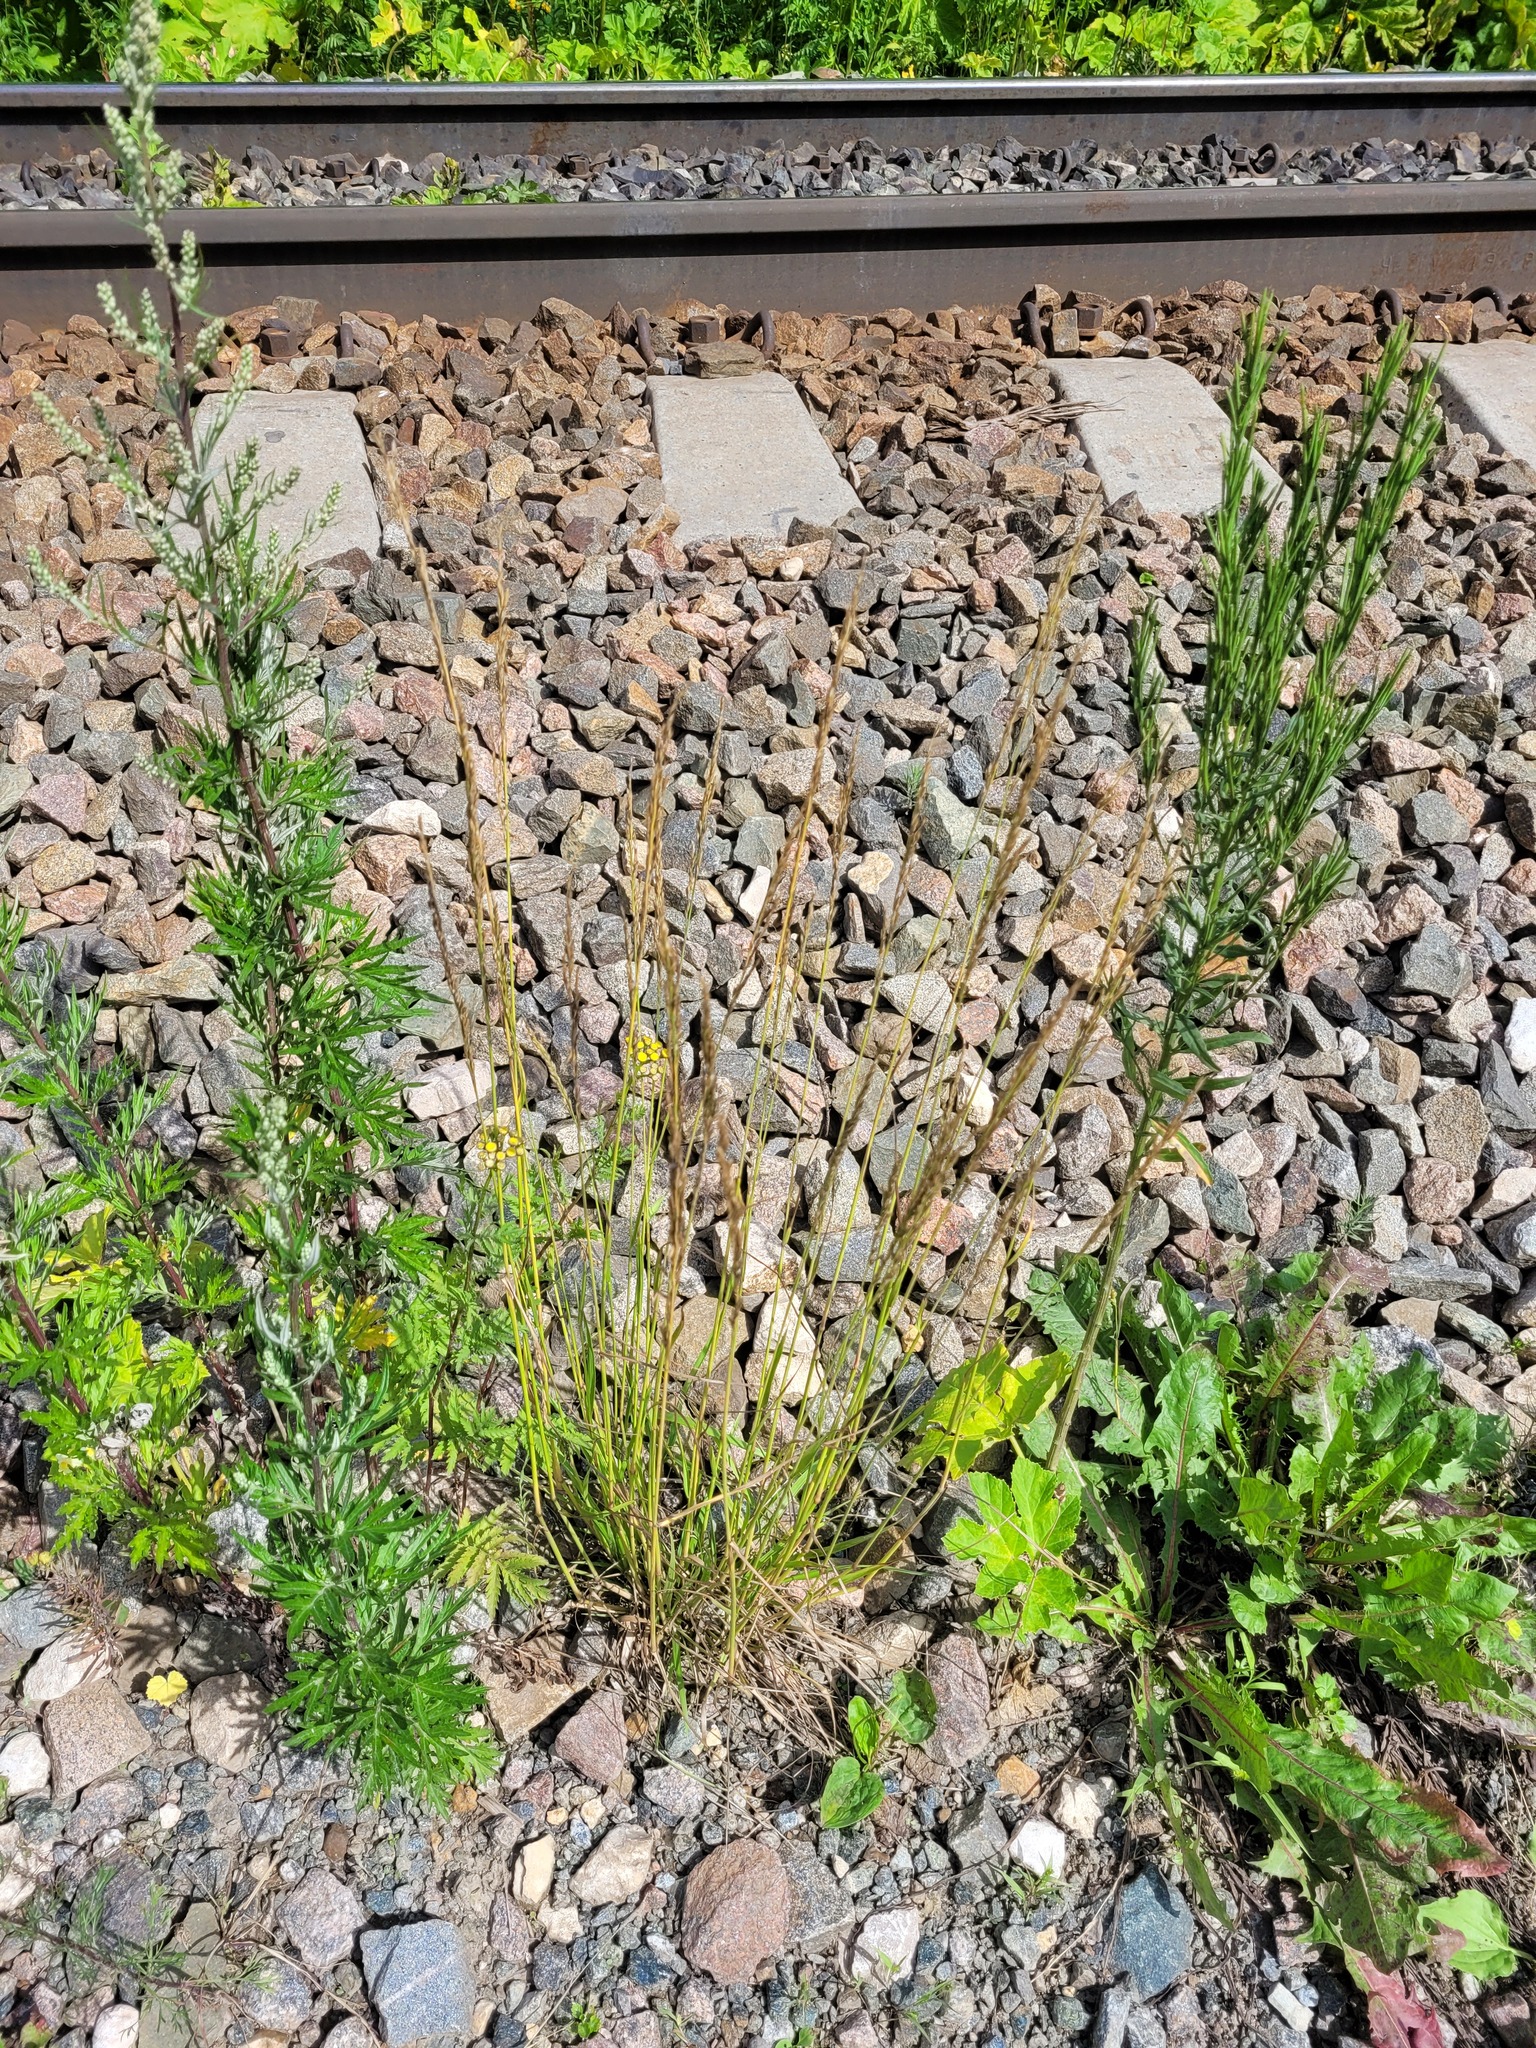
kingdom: Plantae
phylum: Tracheophyta
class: Liliopsida
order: Poales
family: Poaceae
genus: Lolium
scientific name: Lolium pratense
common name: Dover grass
